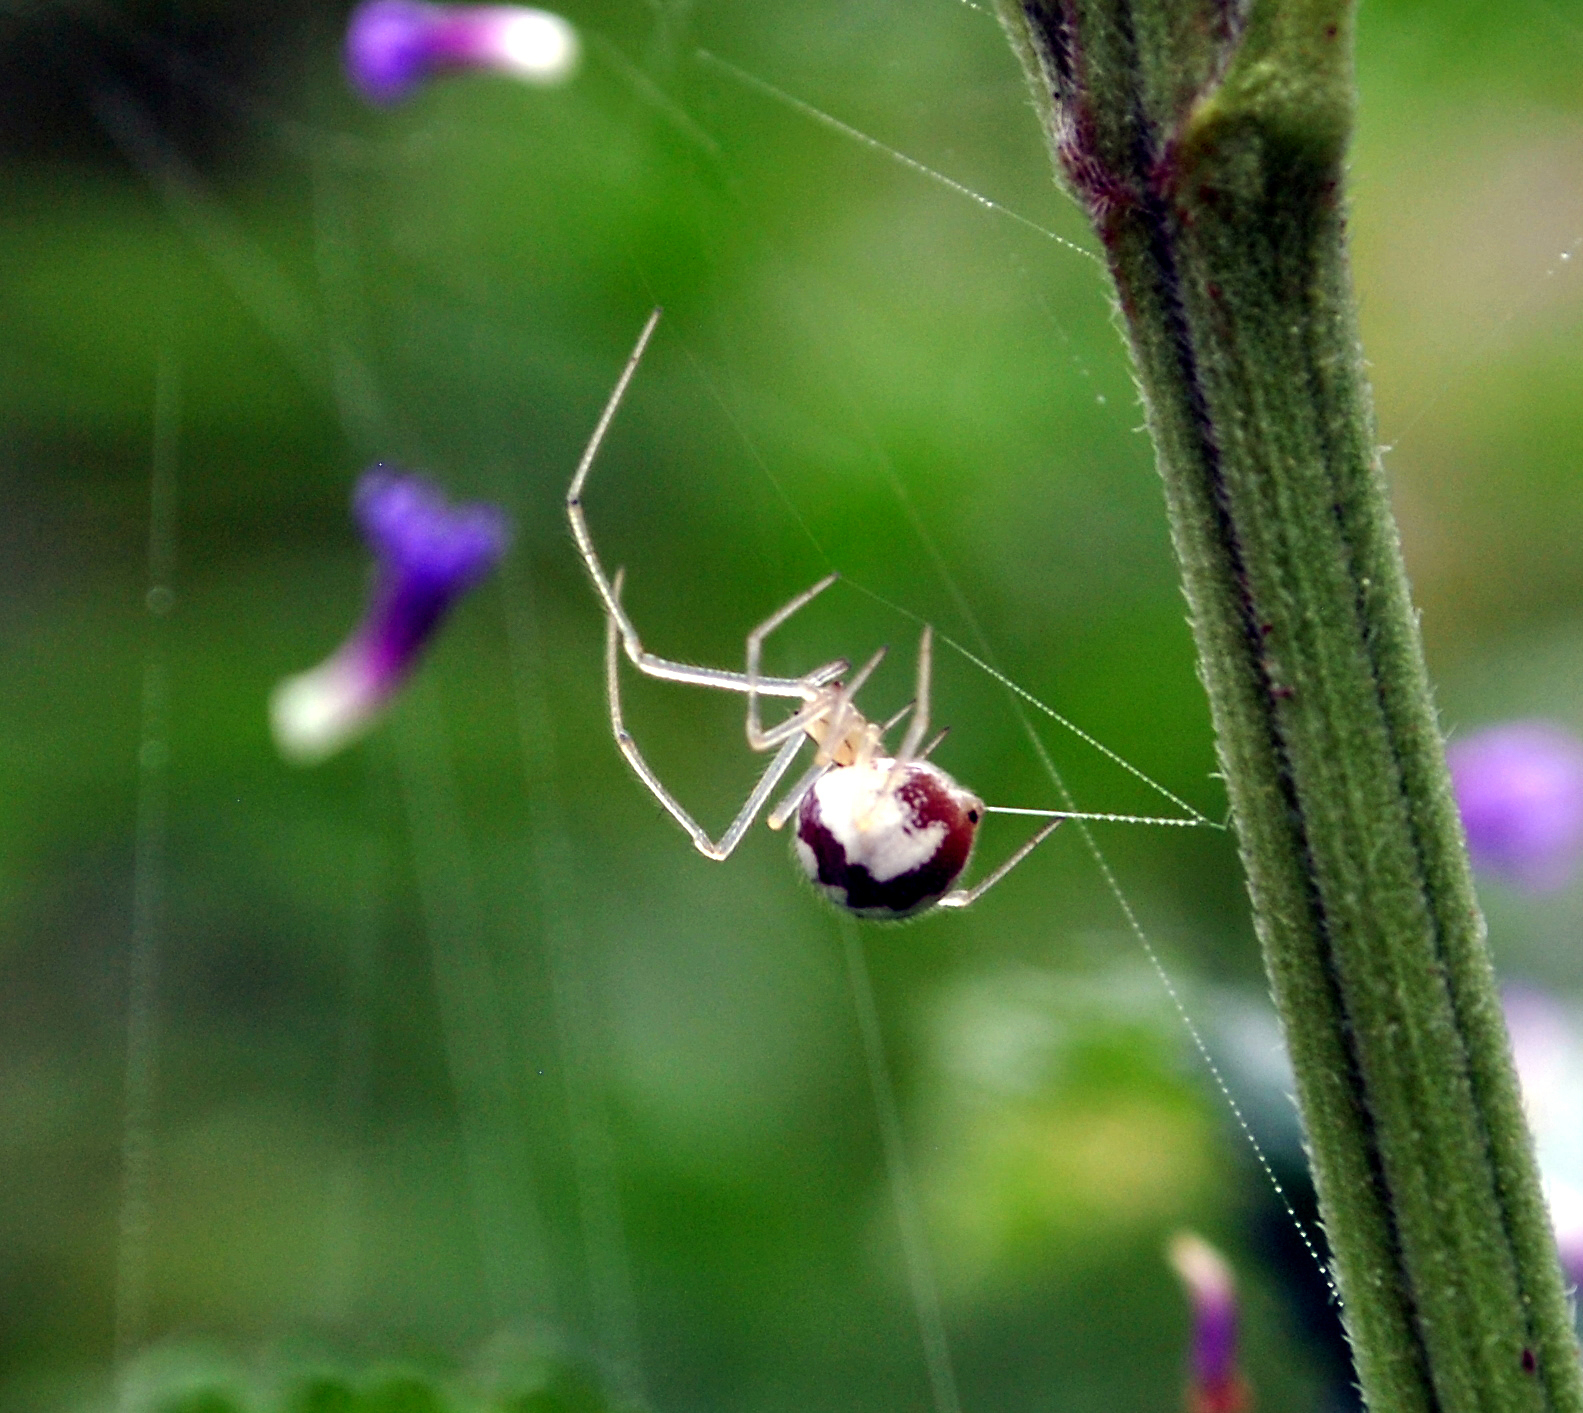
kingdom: Animalia
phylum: Arthropoda
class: Arachnida
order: Araneae
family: Theridiidae
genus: Enoplognatha
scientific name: Enoplognatha ovata
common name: Common candy-striped spider
